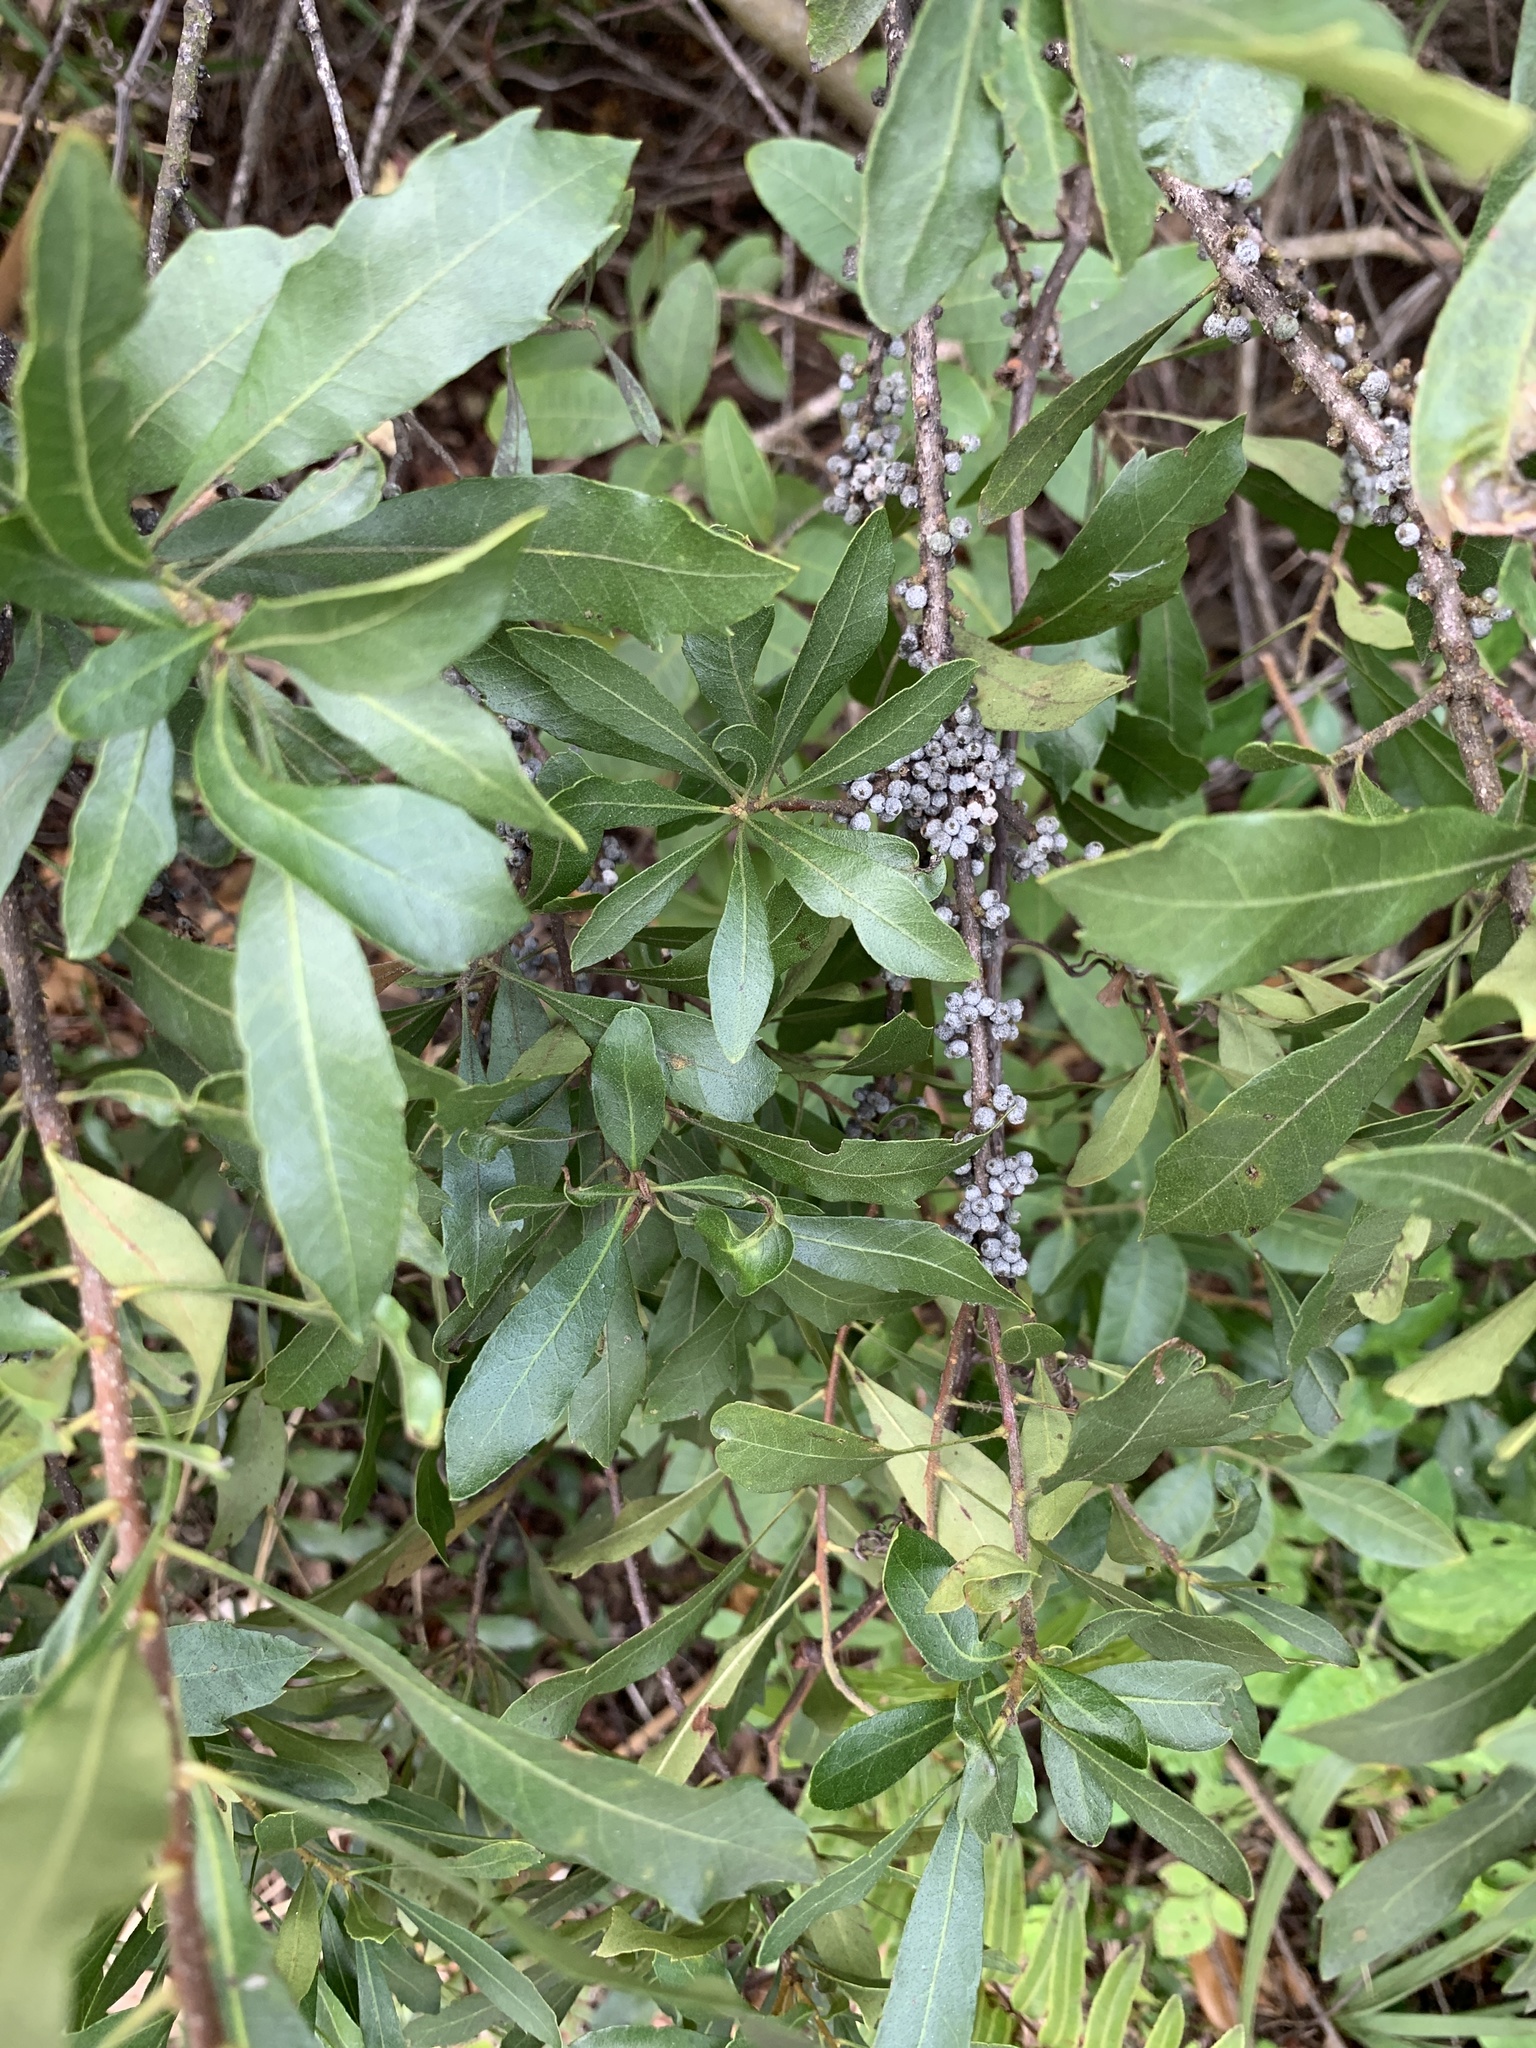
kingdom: Plantae
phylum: Tracheophyta
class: Magnoliopsida
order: Fagales
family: Myricaceae
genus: Morella
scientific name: Morella cerifera
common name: Wax myrtle
